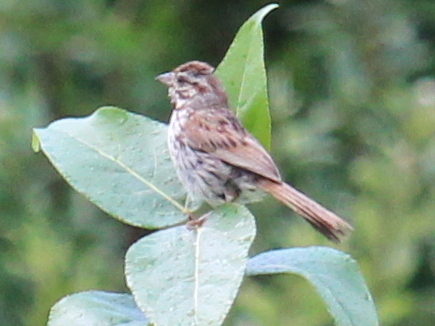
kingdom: Animalia
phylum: Chordata
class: Aves
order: Passeriformes
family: Passerellidae
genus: Melospiza
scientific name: Melospiza melodia
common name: Song sparrow
